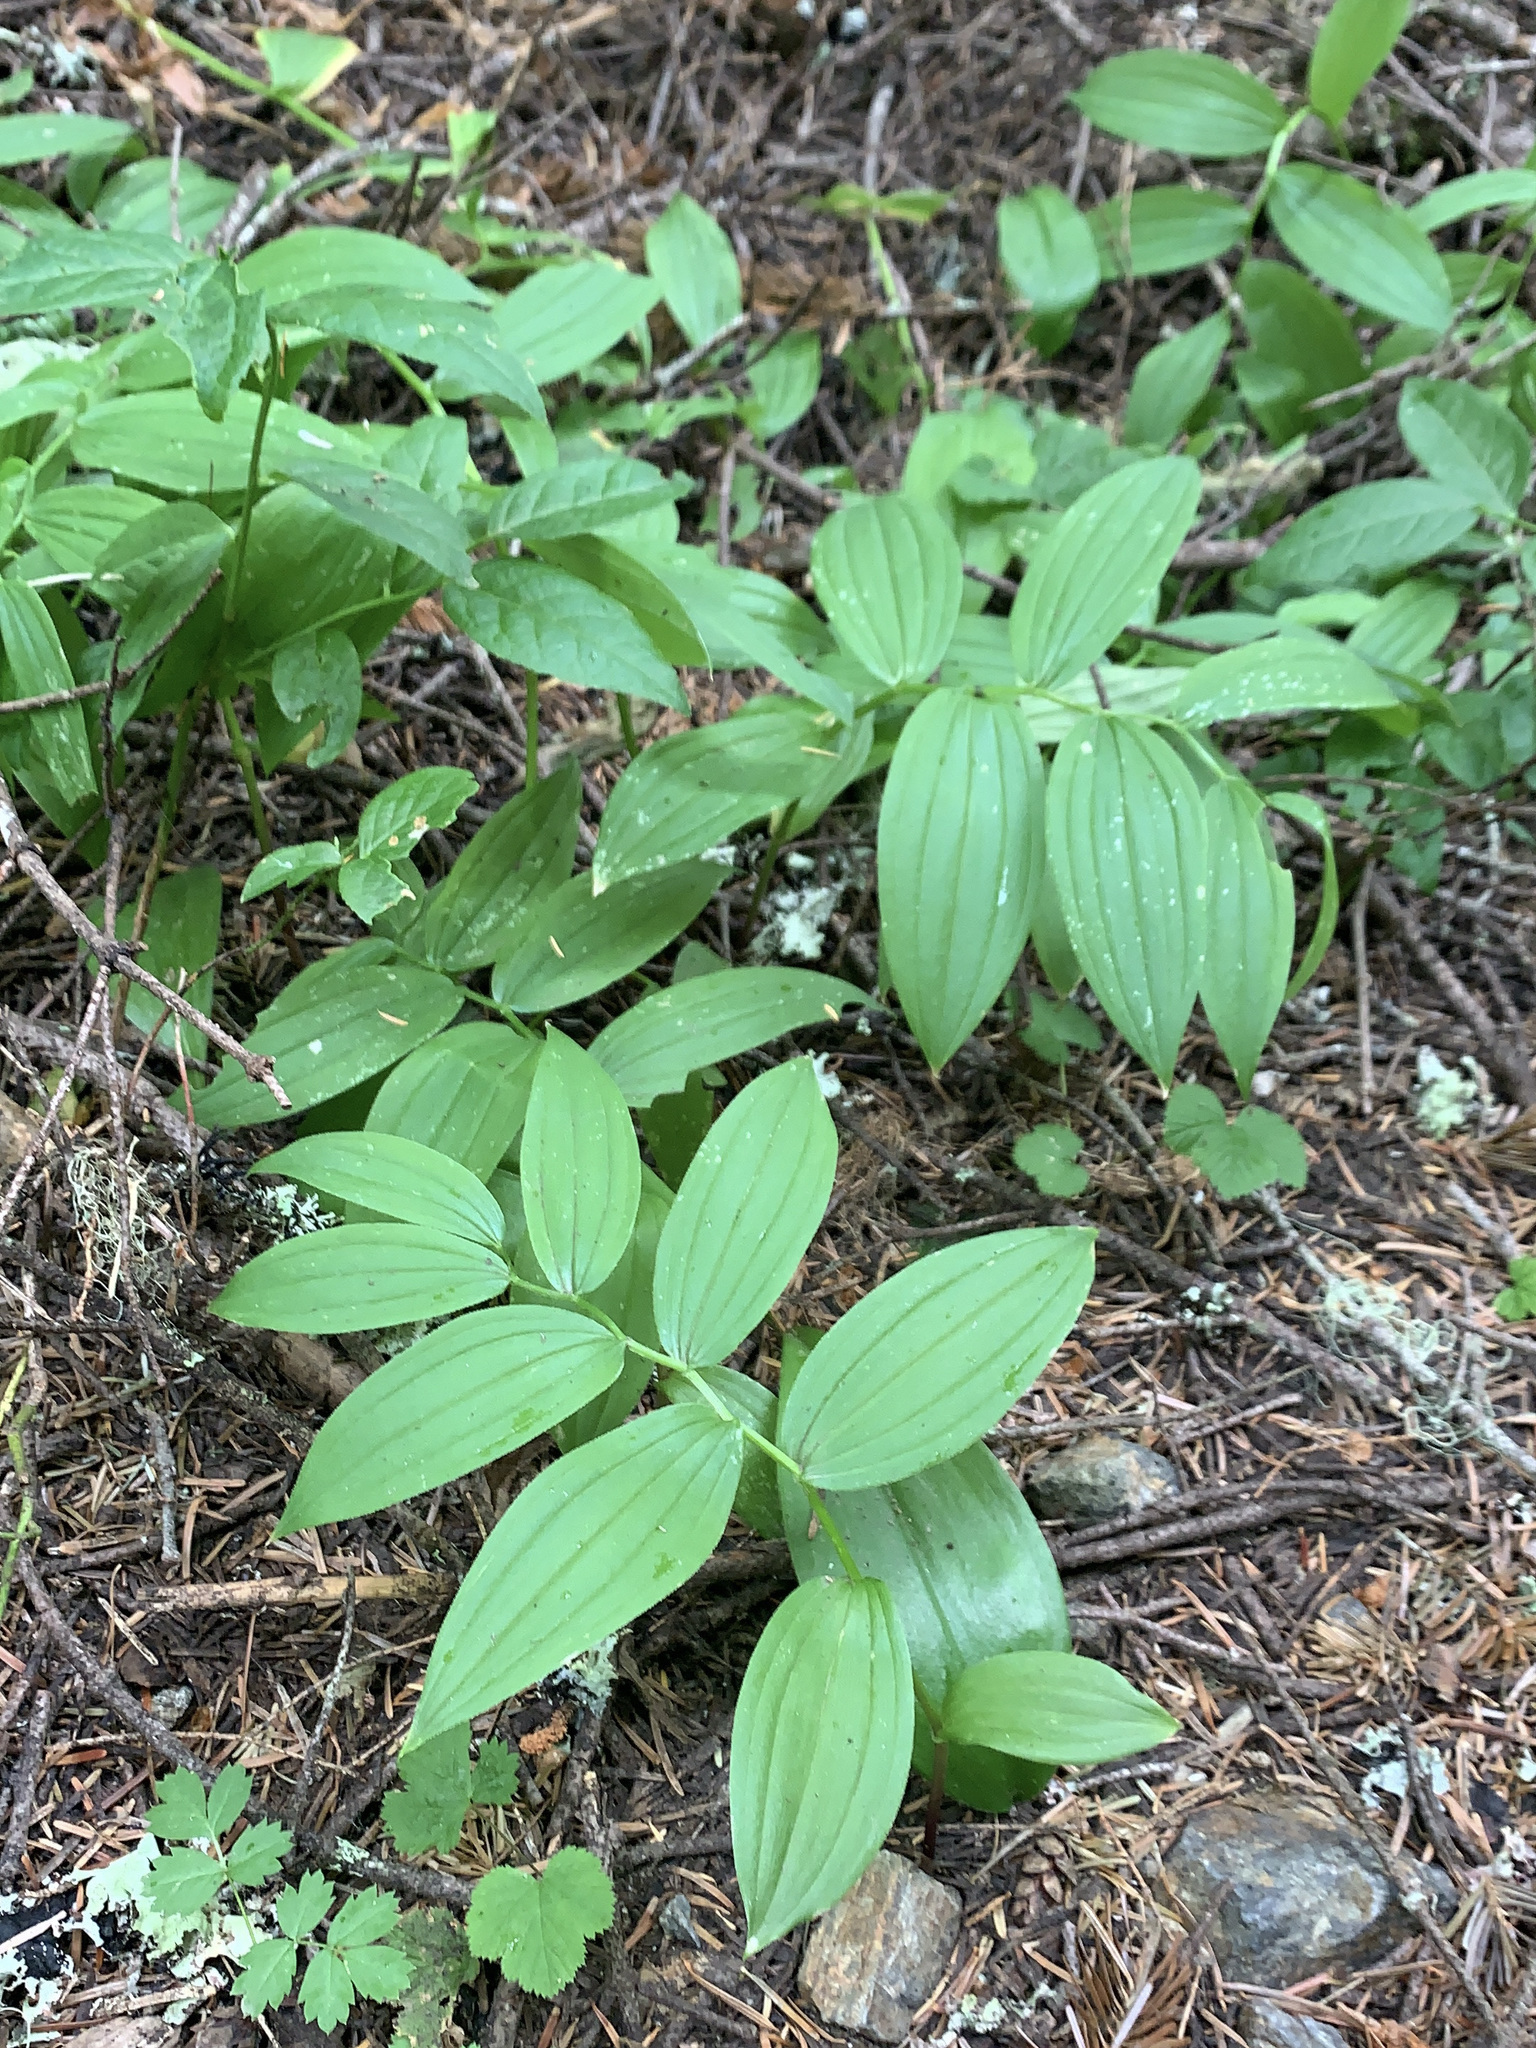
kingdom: Plantae
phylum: Tracheophyta
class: Liliopsida
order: Liliales
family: Liliaceae
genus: Streptopus
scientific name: Streptopus lanceolatus
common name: Rose mandarin
